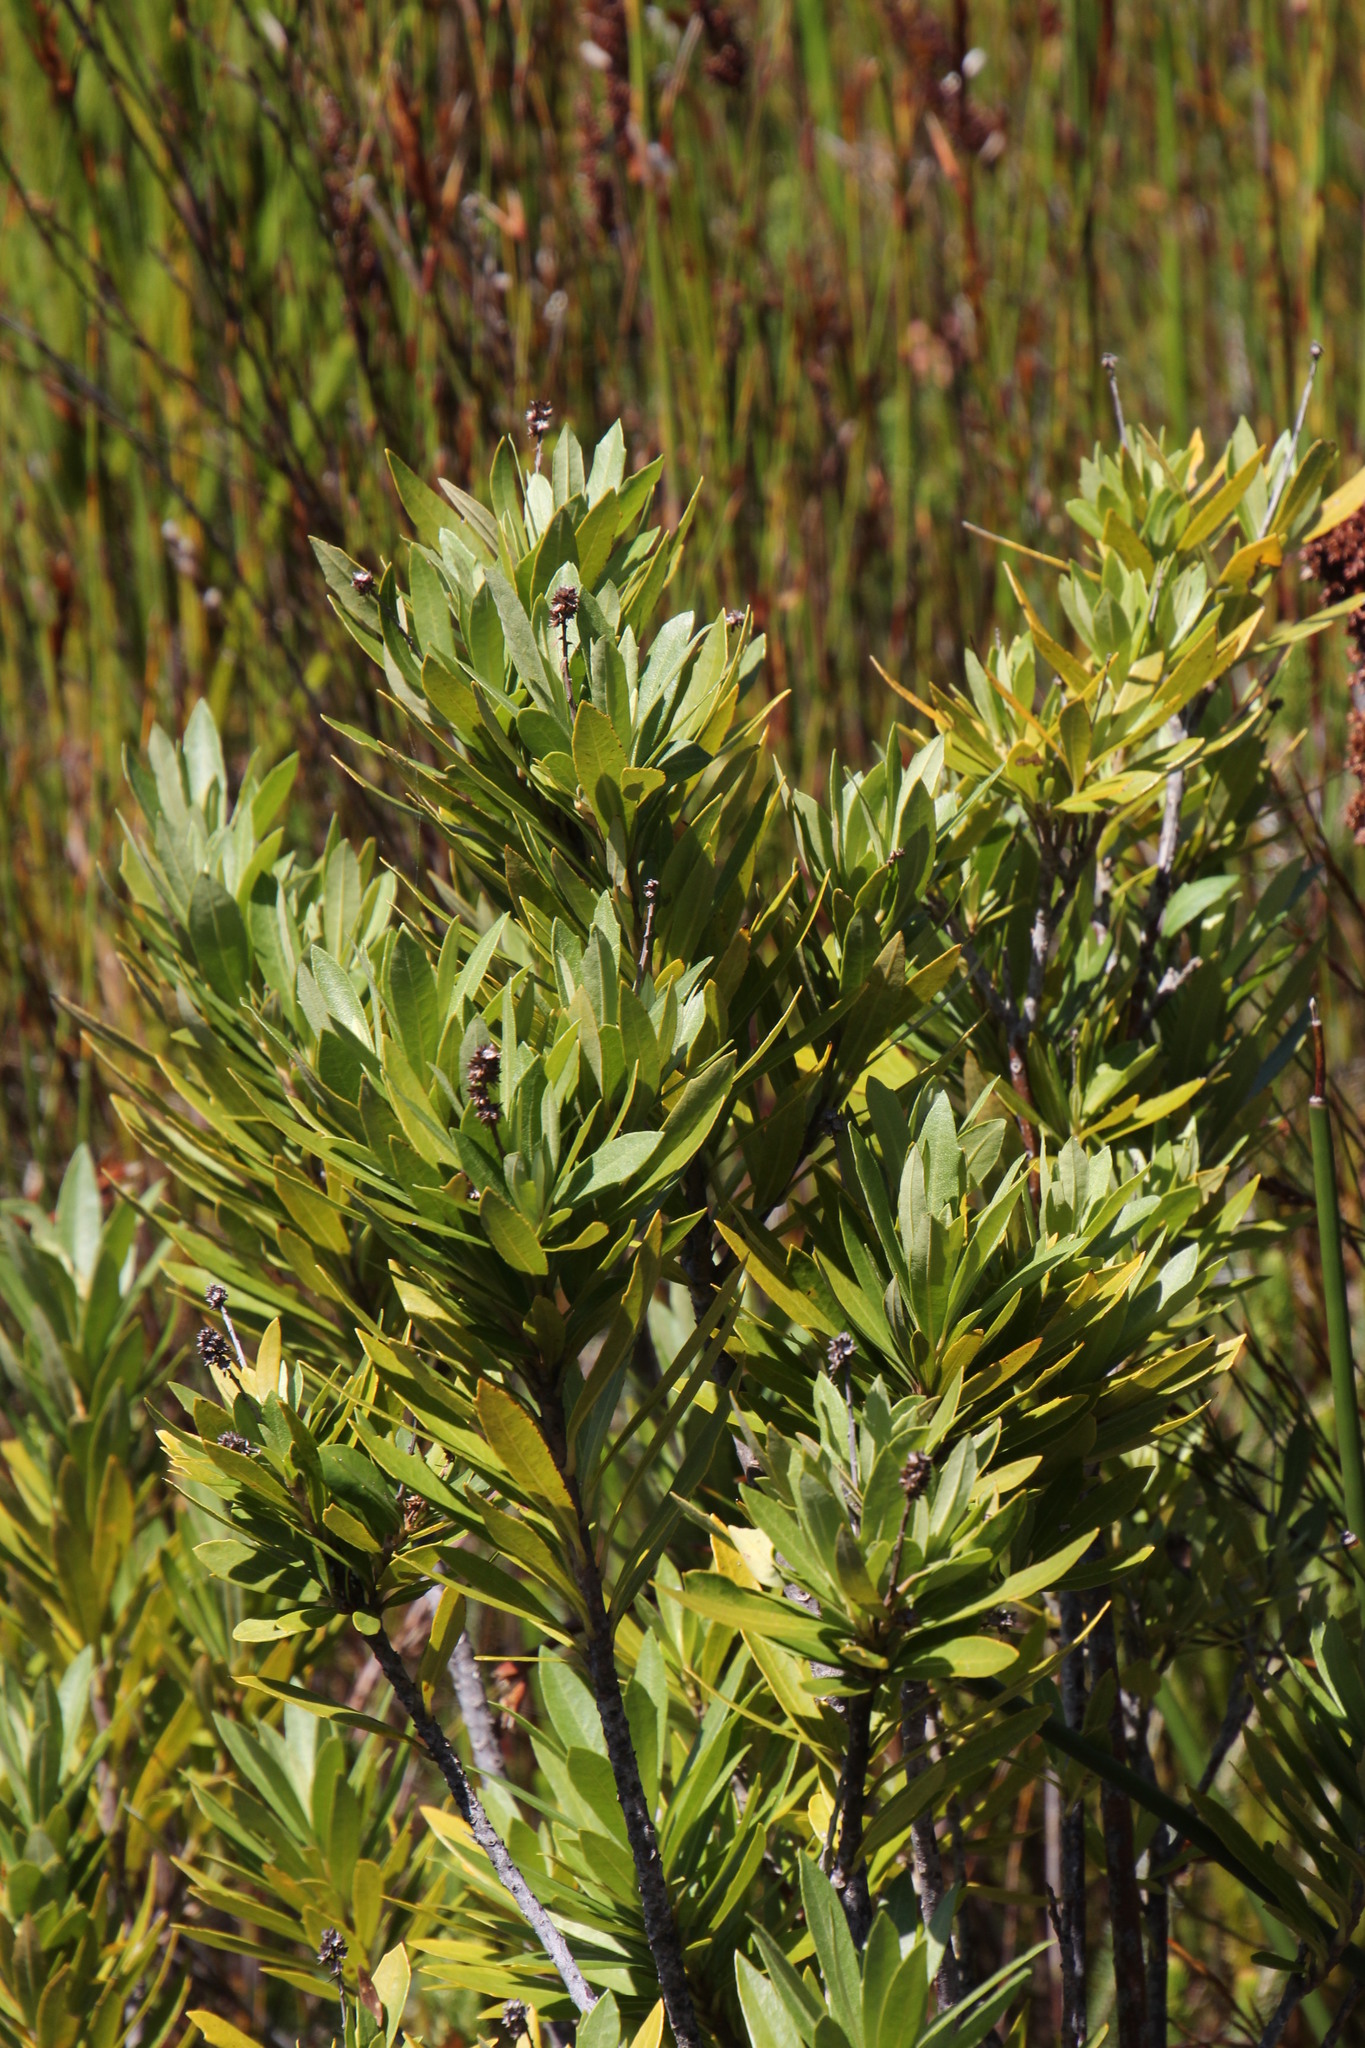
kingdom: Plantae
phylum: Tracheophyta
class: Magnoliopsida
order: Asterales
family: Asteraceae
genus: Brachylaena
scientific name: Brachylaena neriifolia
